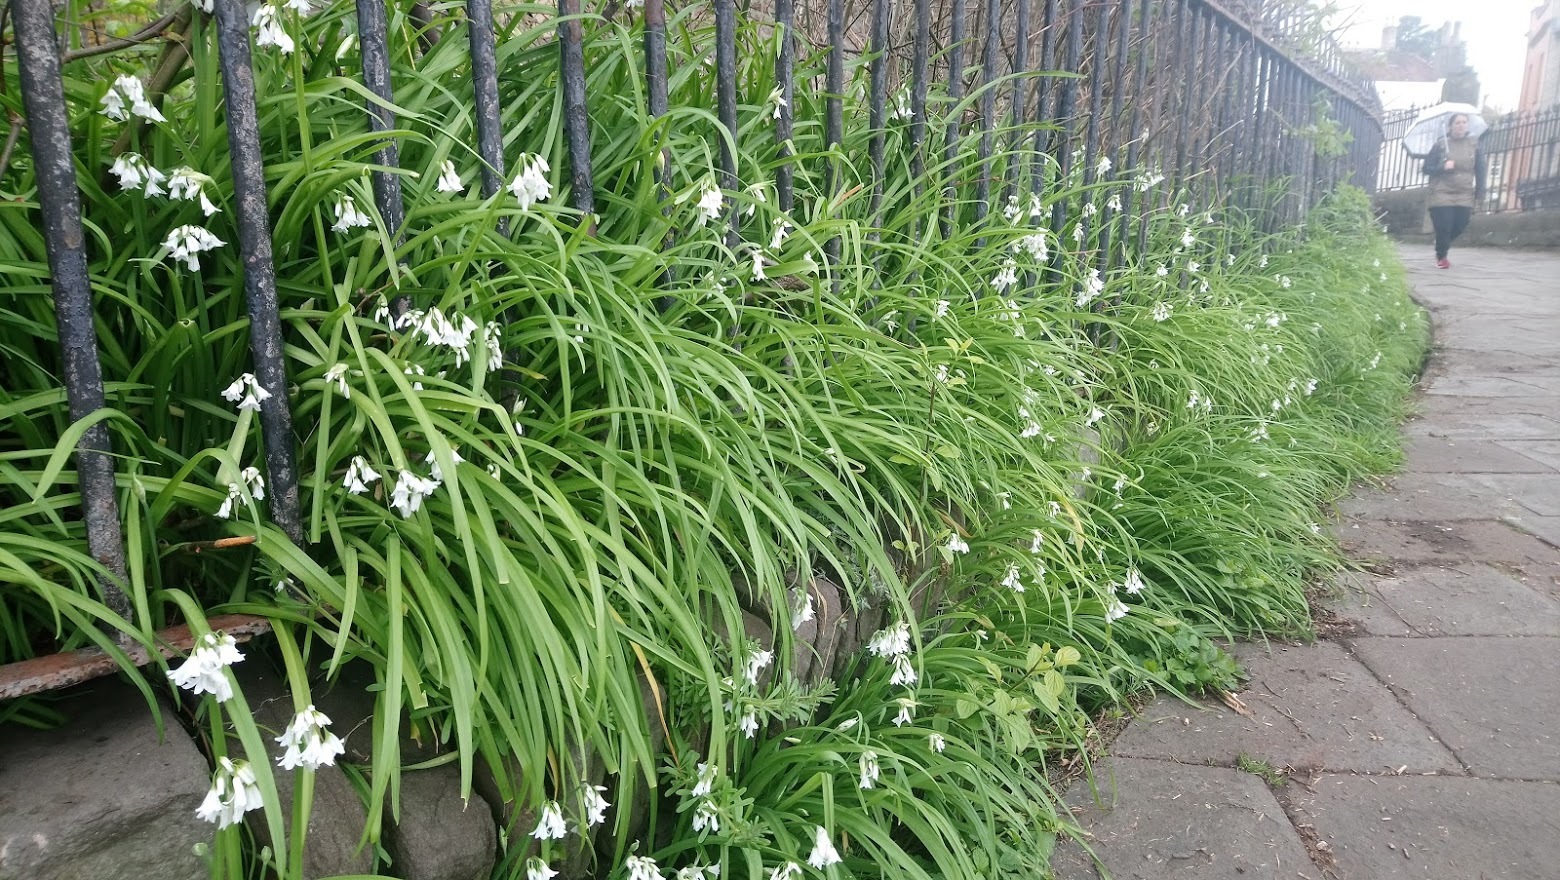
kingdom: Plantae
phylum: Tracheophyta
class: Liliopsida
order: Asparagales
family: Amaryllidaceae
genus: Allium
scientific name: Allium triquetrum
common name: Three-cornered garlic
